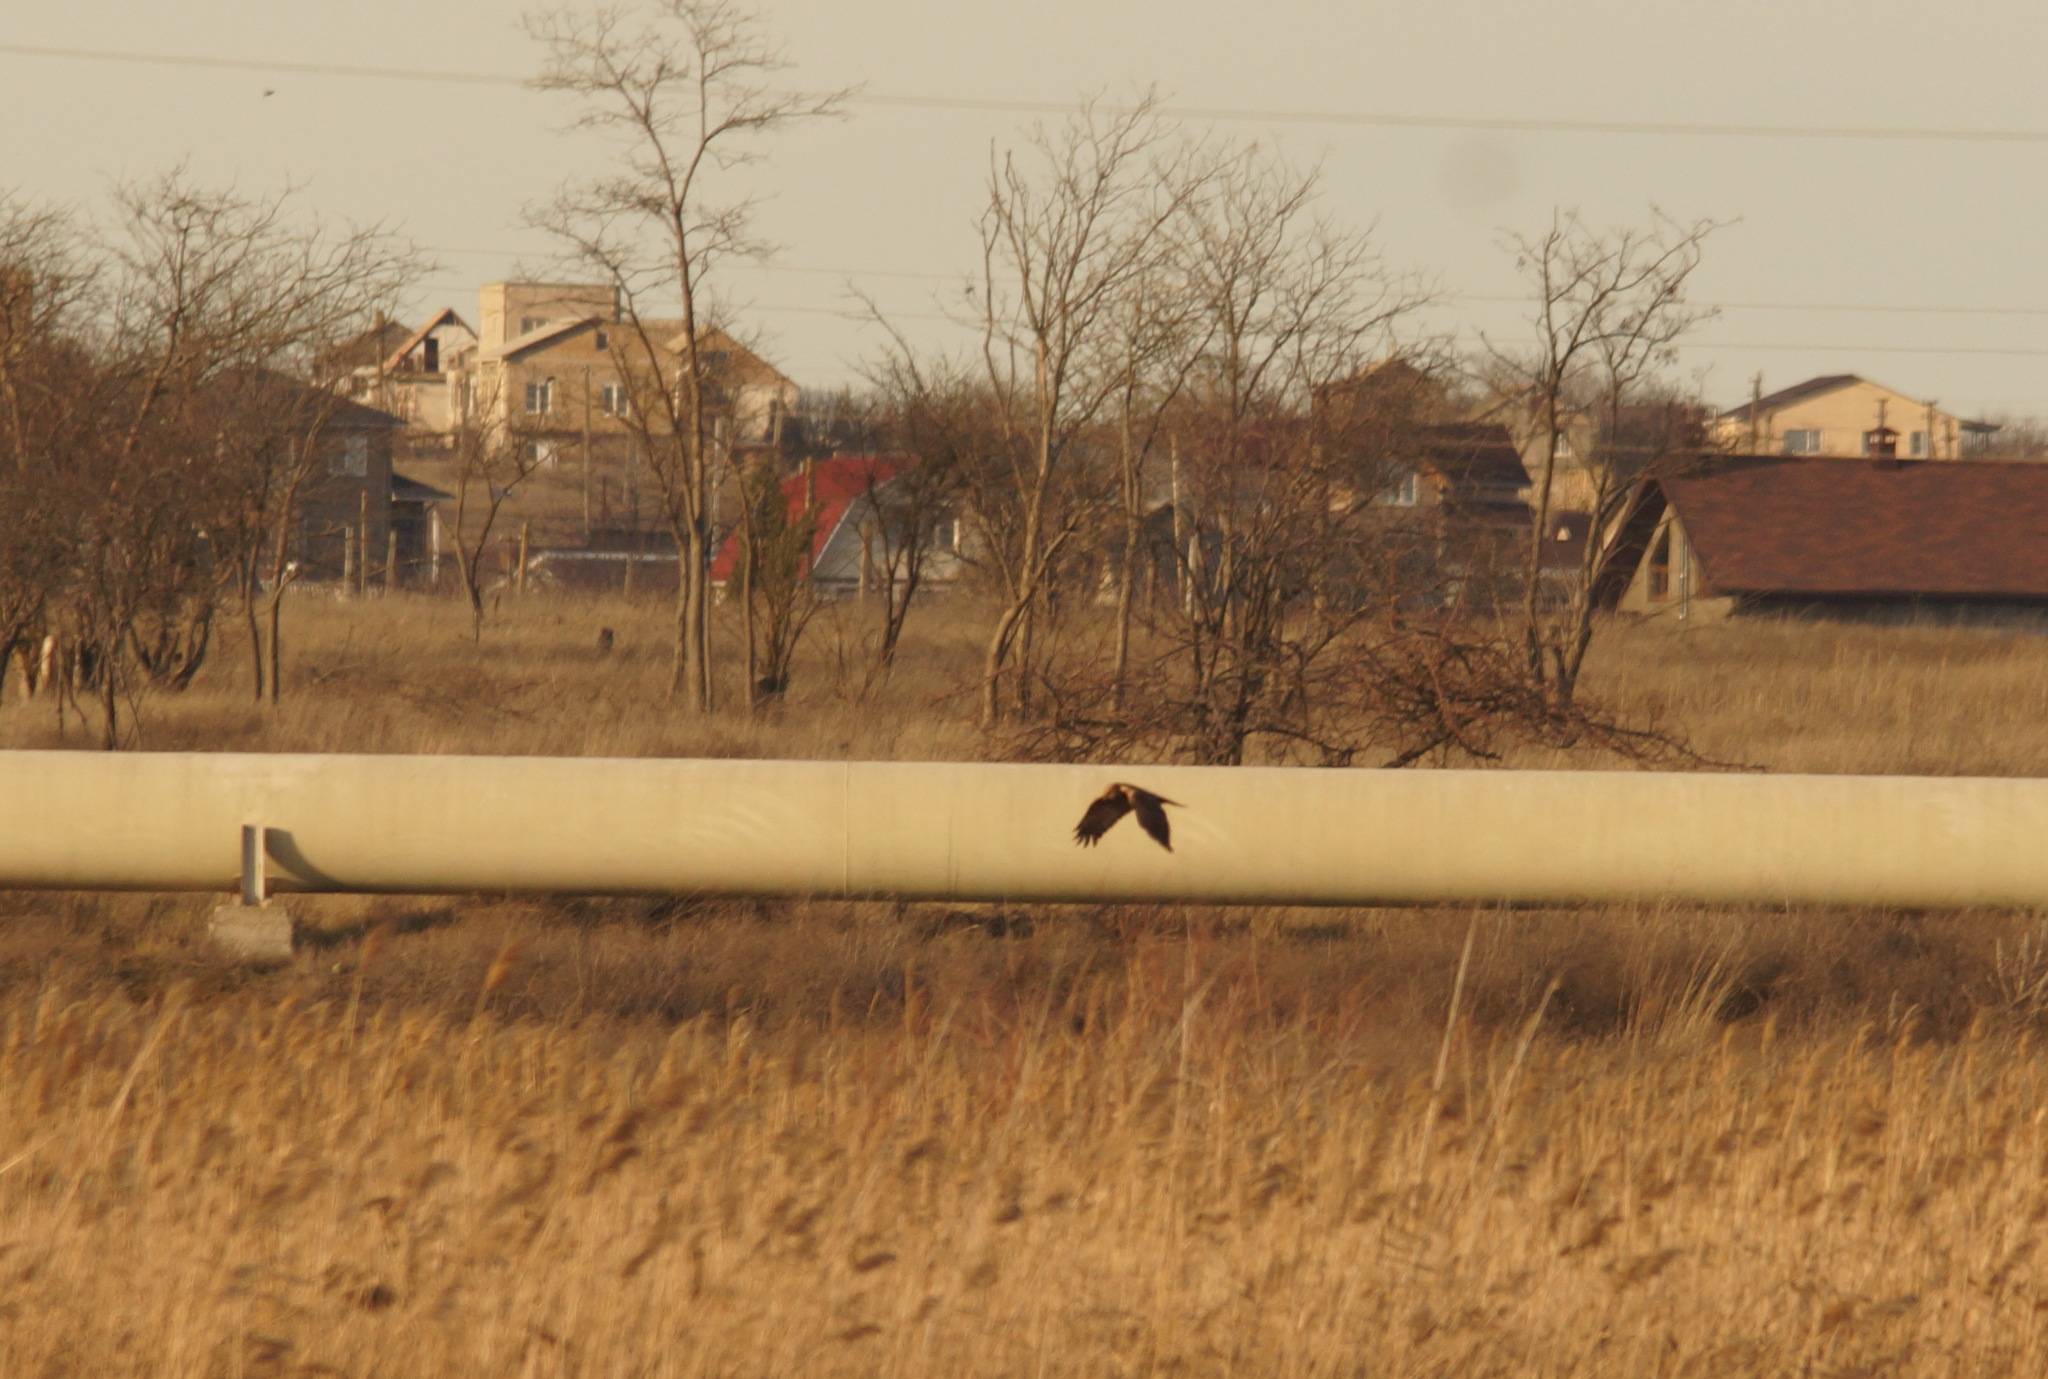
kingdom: Animalia
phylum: Chordata
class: Aves
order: Accipitriformes
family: Accipitridae
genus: Circus
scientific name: Circus aeruginosus
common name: Western marsh harrier
